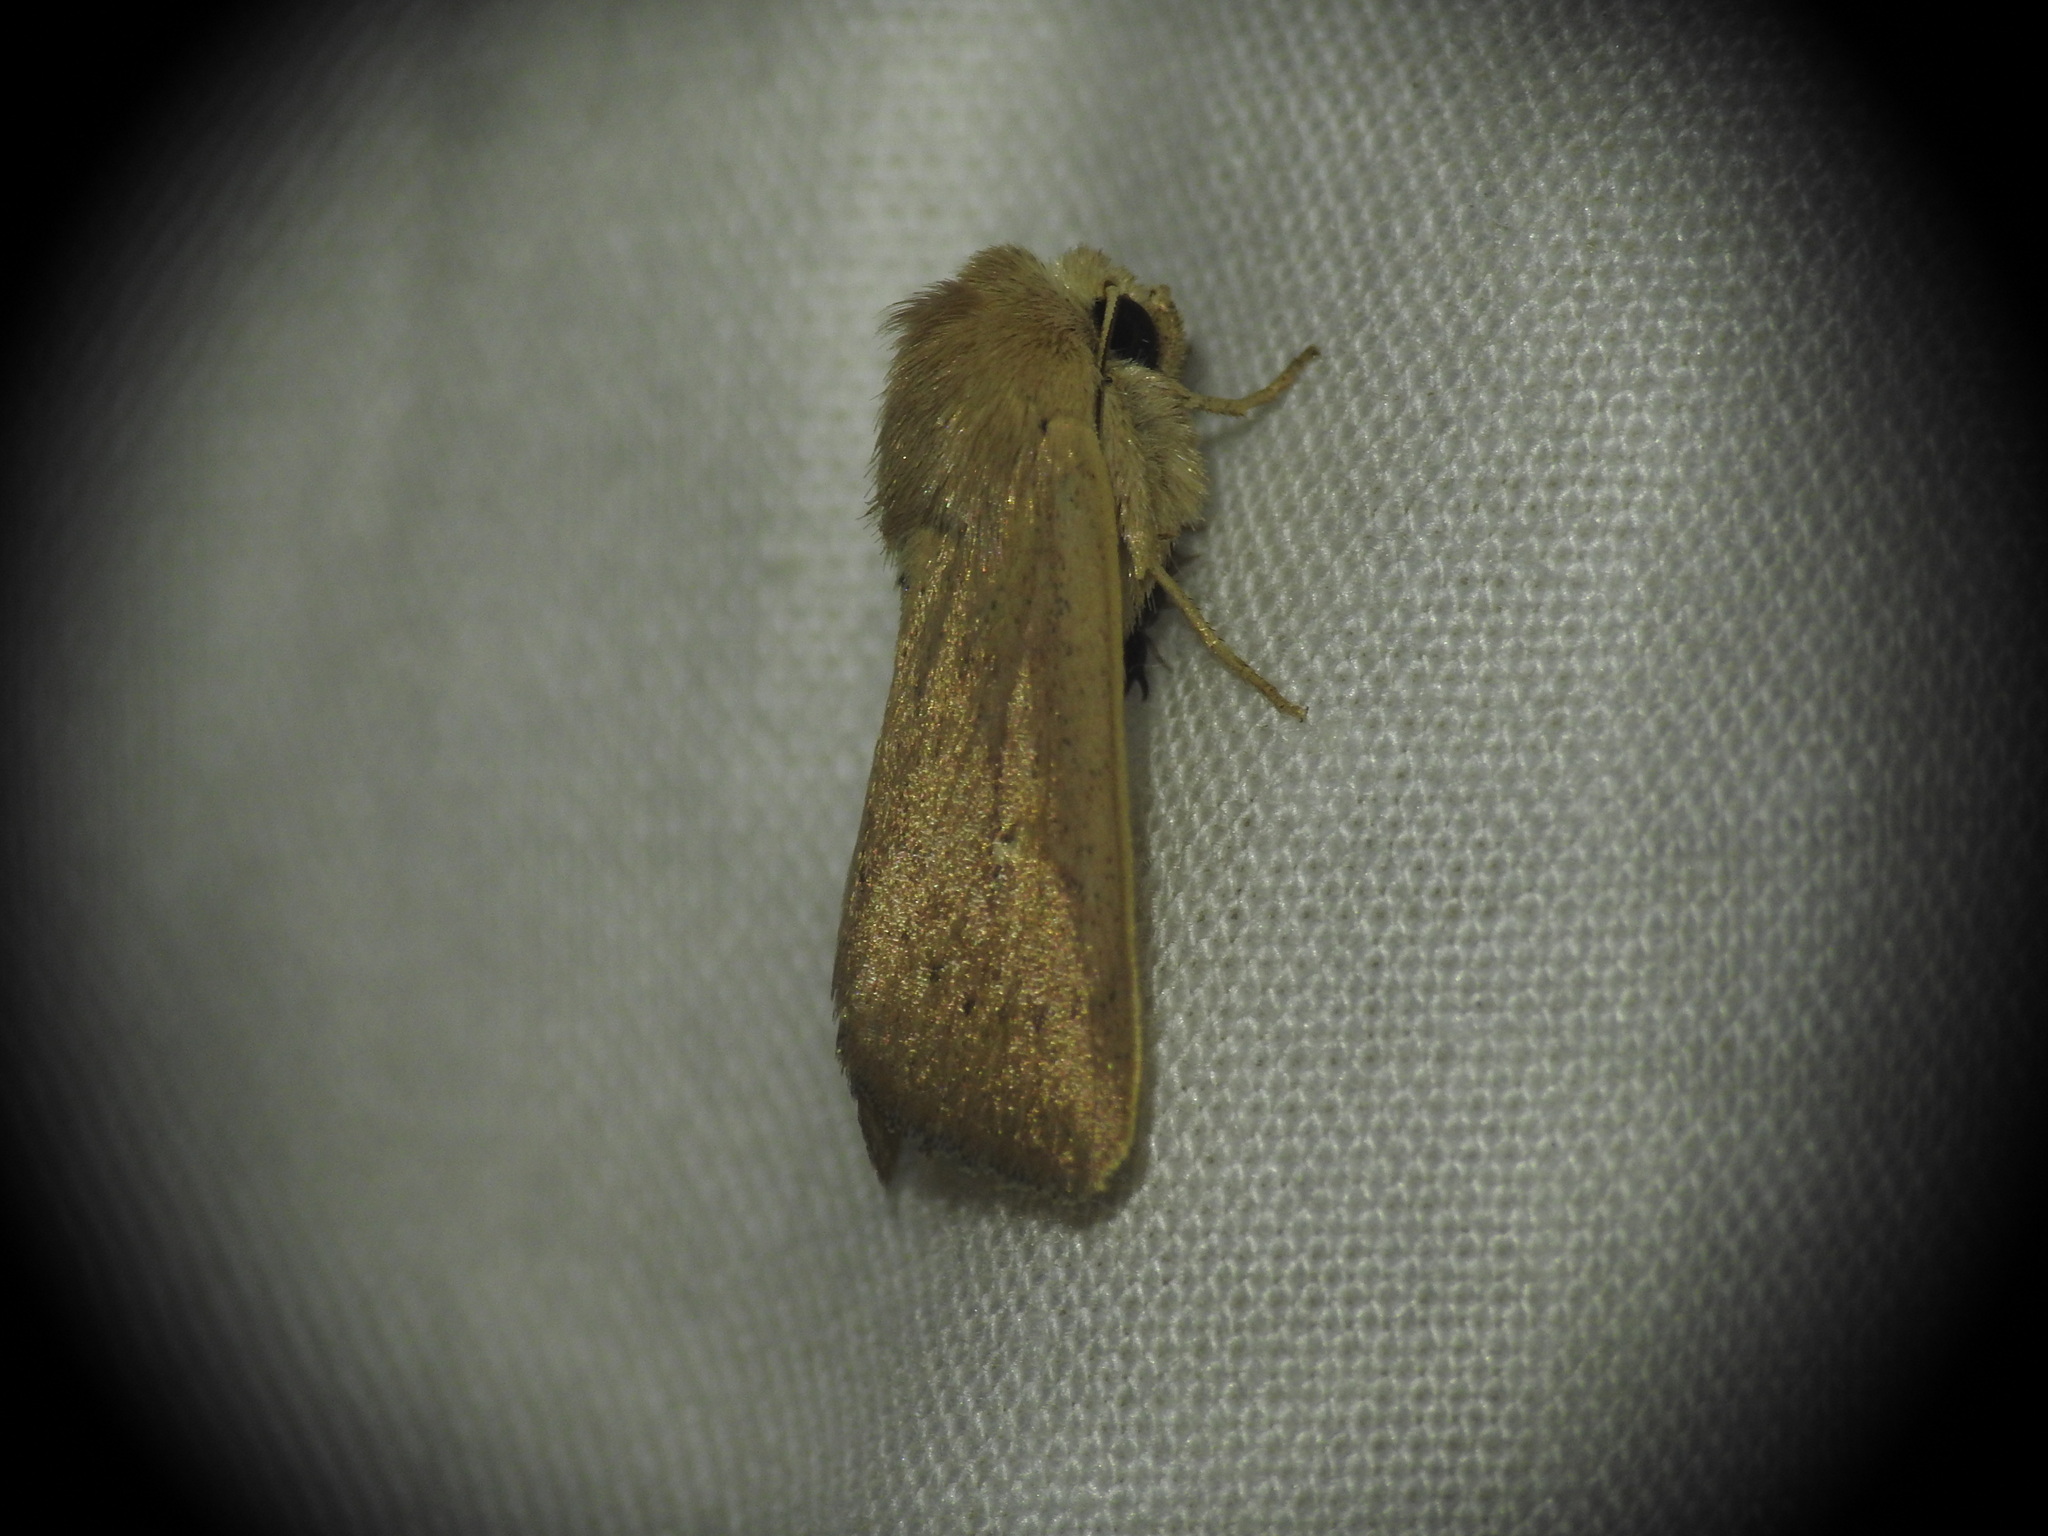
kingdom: Animalia
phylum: Arthropoda
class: Insecta
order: Lepidoptera
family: Noctuidae
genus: Mythimna
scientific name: Mythimna sicula
